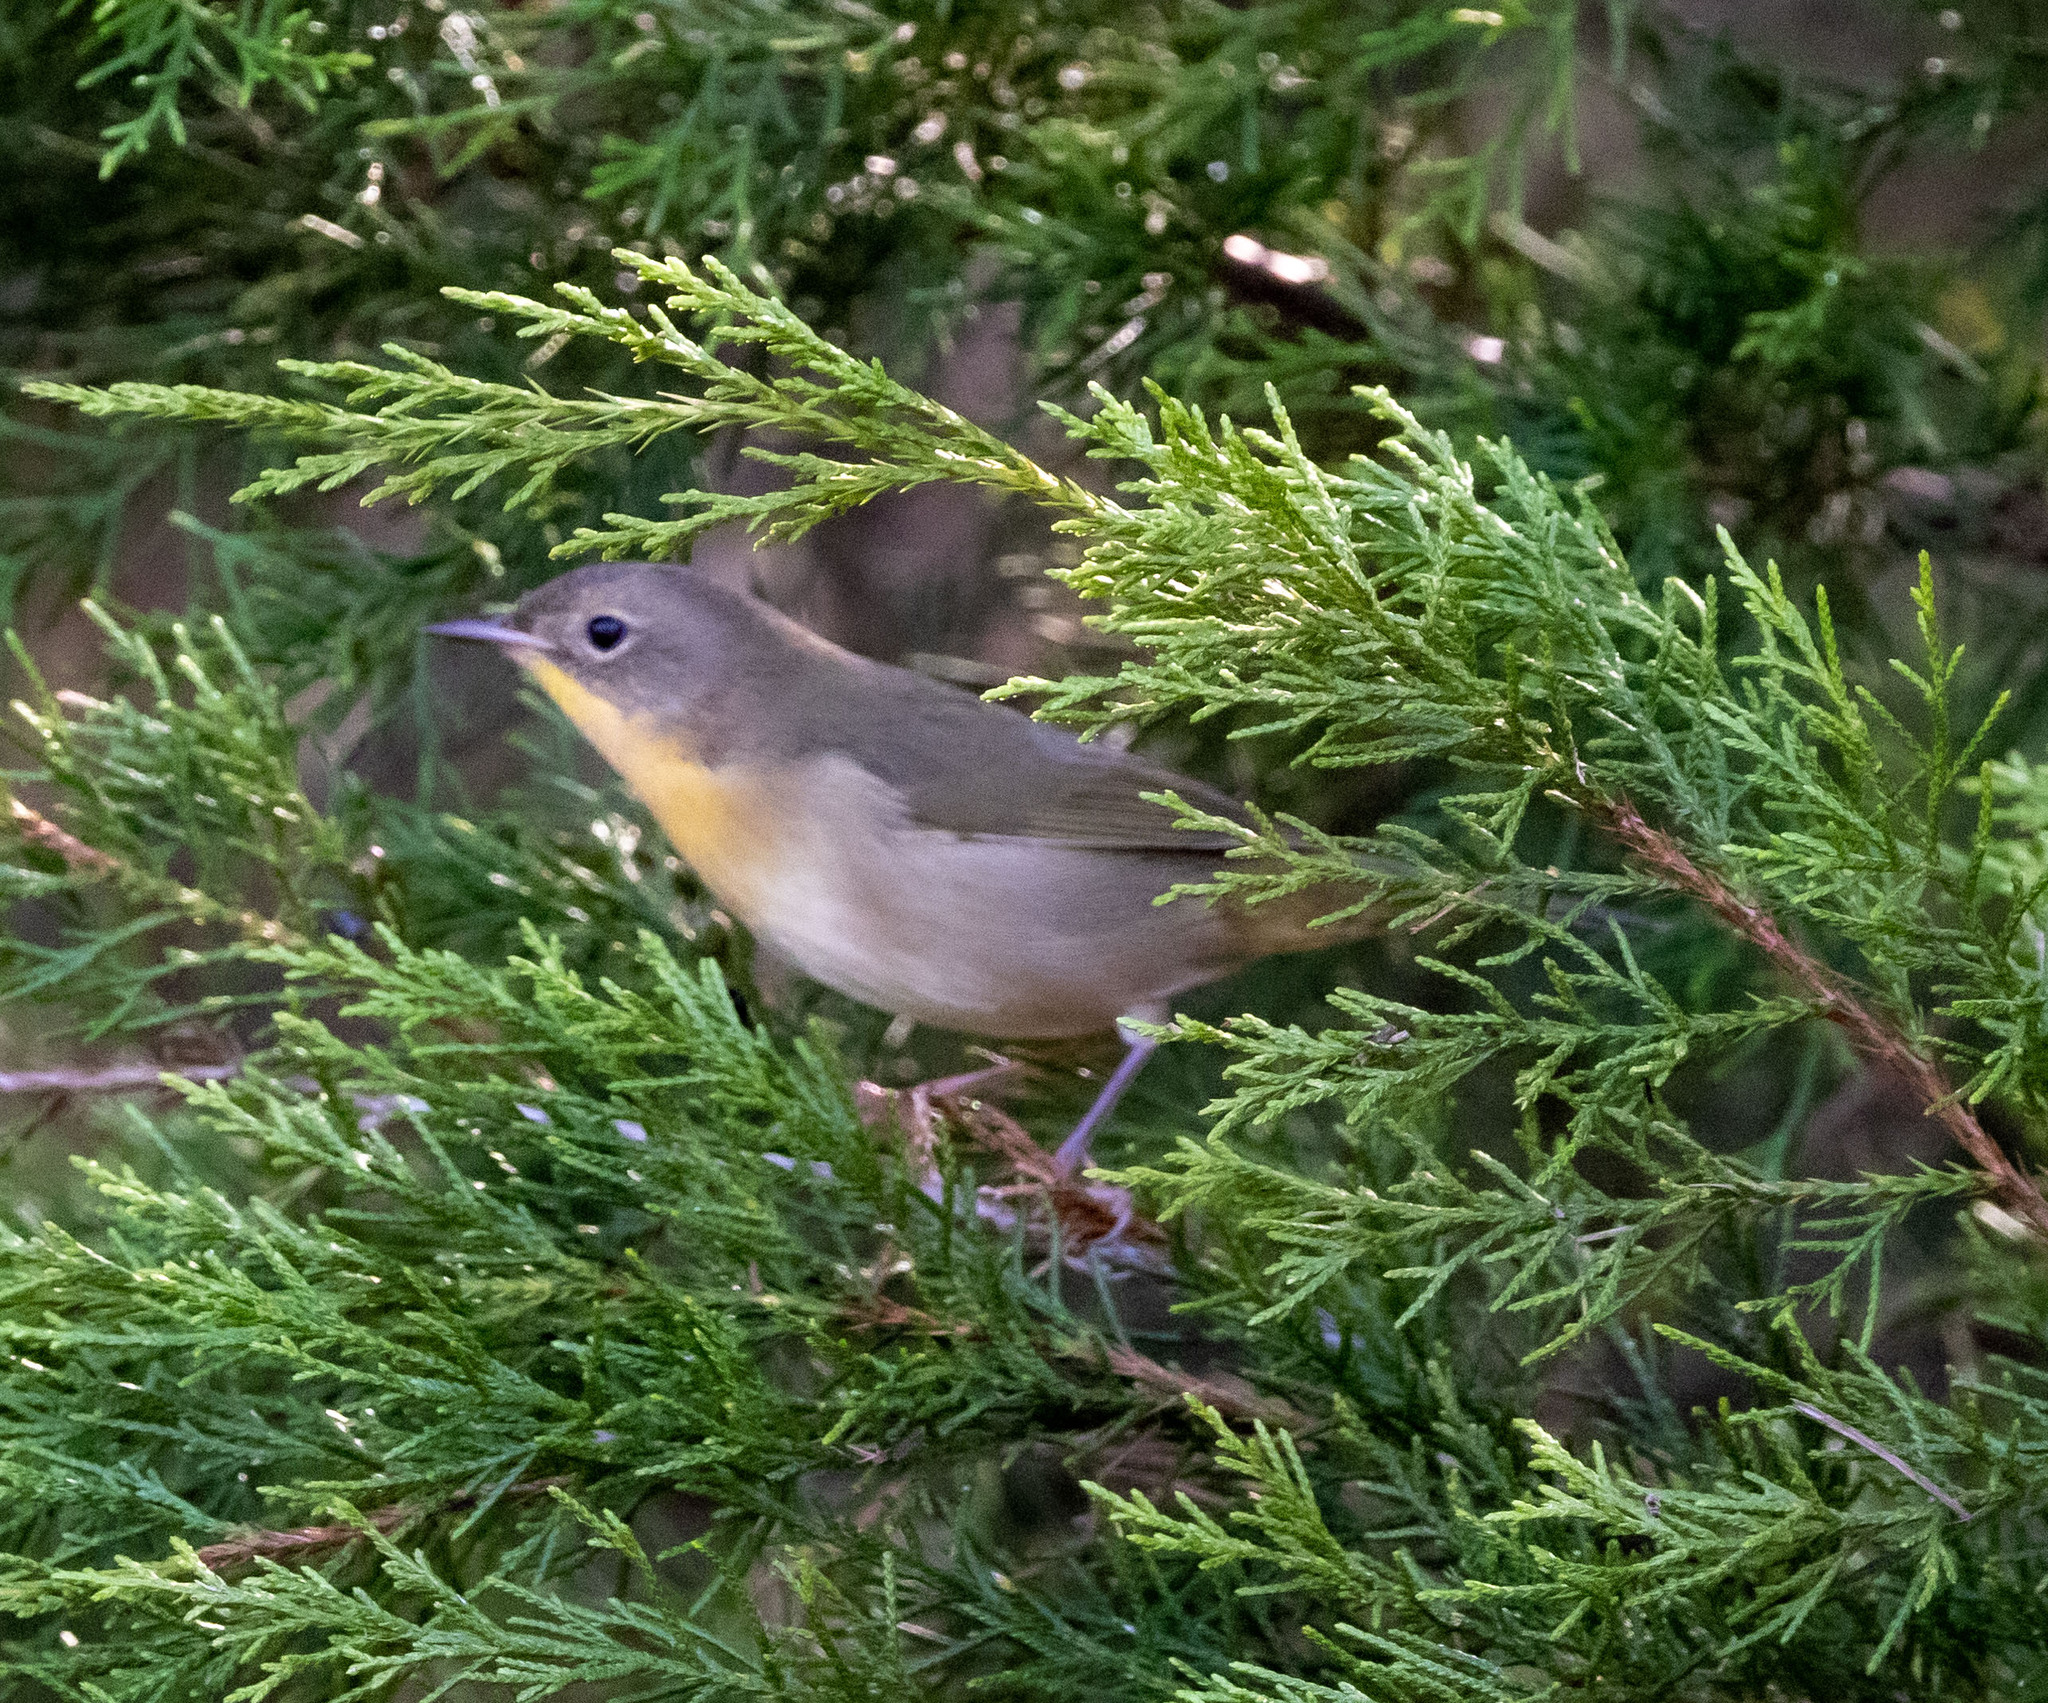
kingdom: Animalia
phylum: Chordata
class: Aves
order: Passeriformes
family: Parulidae
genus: Geothlypis
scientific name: Geothlypis trichas
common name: Common yellowthroat
